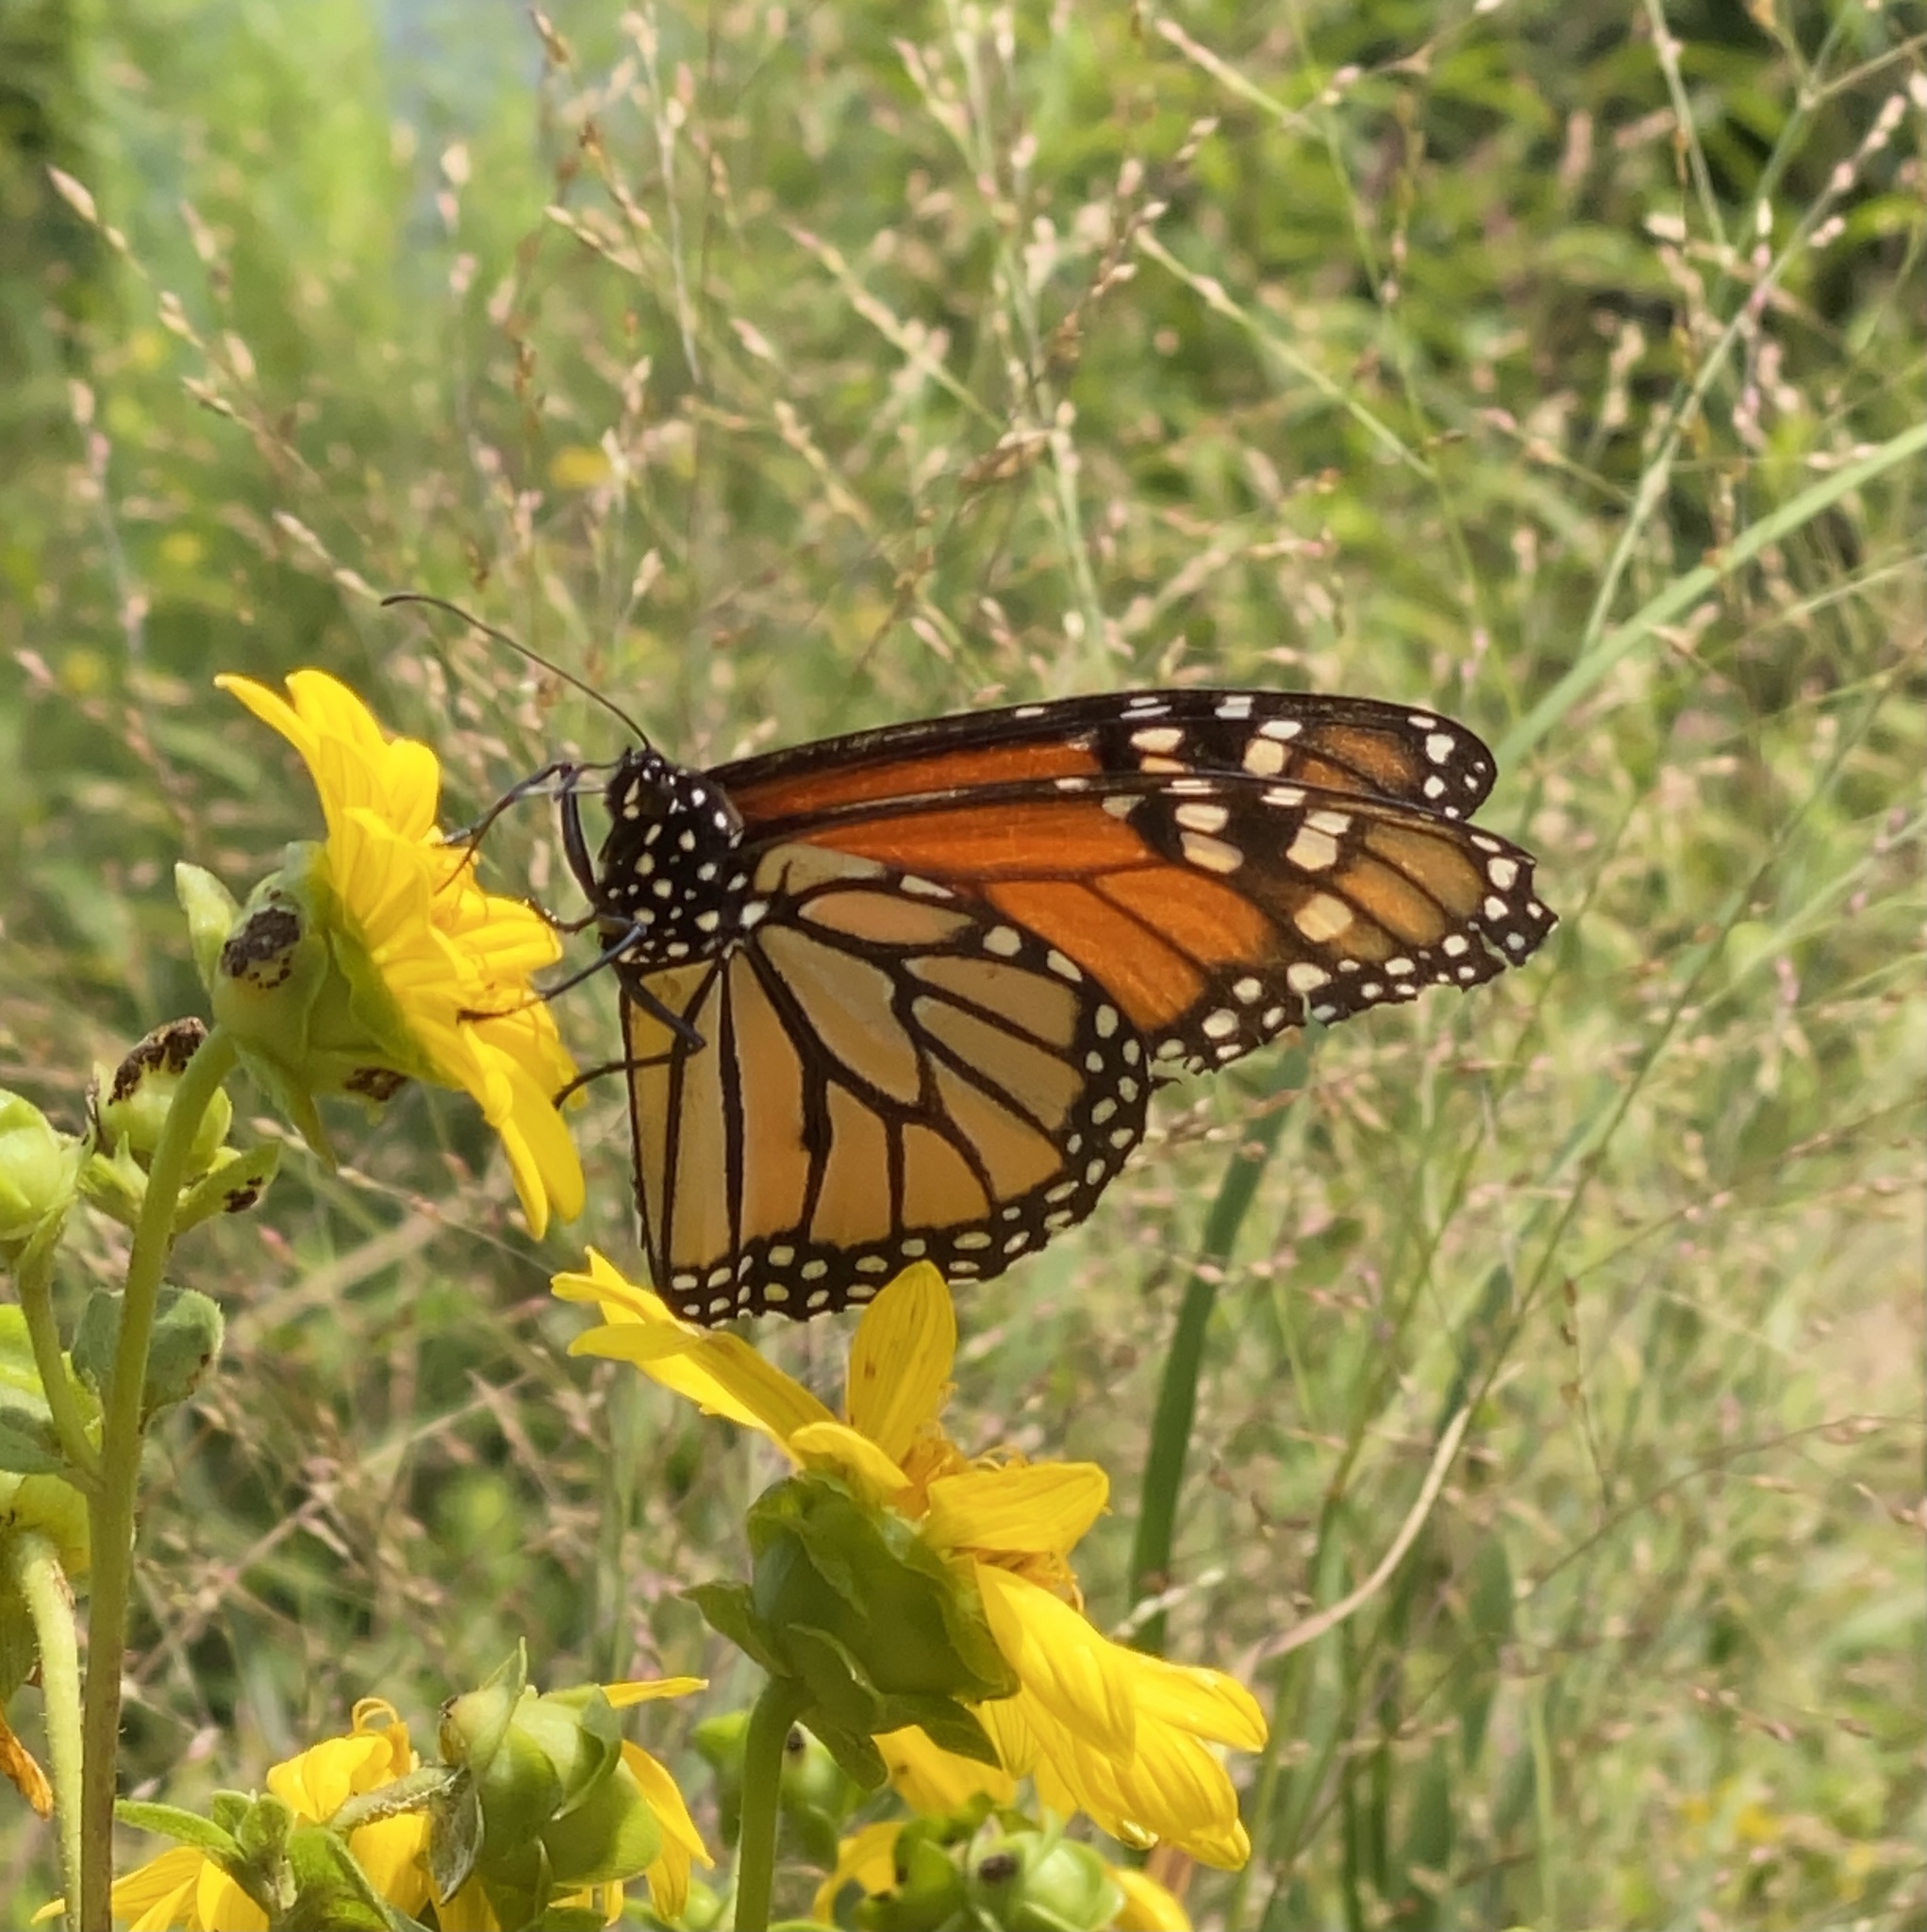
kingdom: Animalia
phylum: Arthropoda
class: Insecta
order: Lepidoptera
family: Nymphalidae
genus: Danaus
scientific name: Danaus plexippus
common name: Monarch
